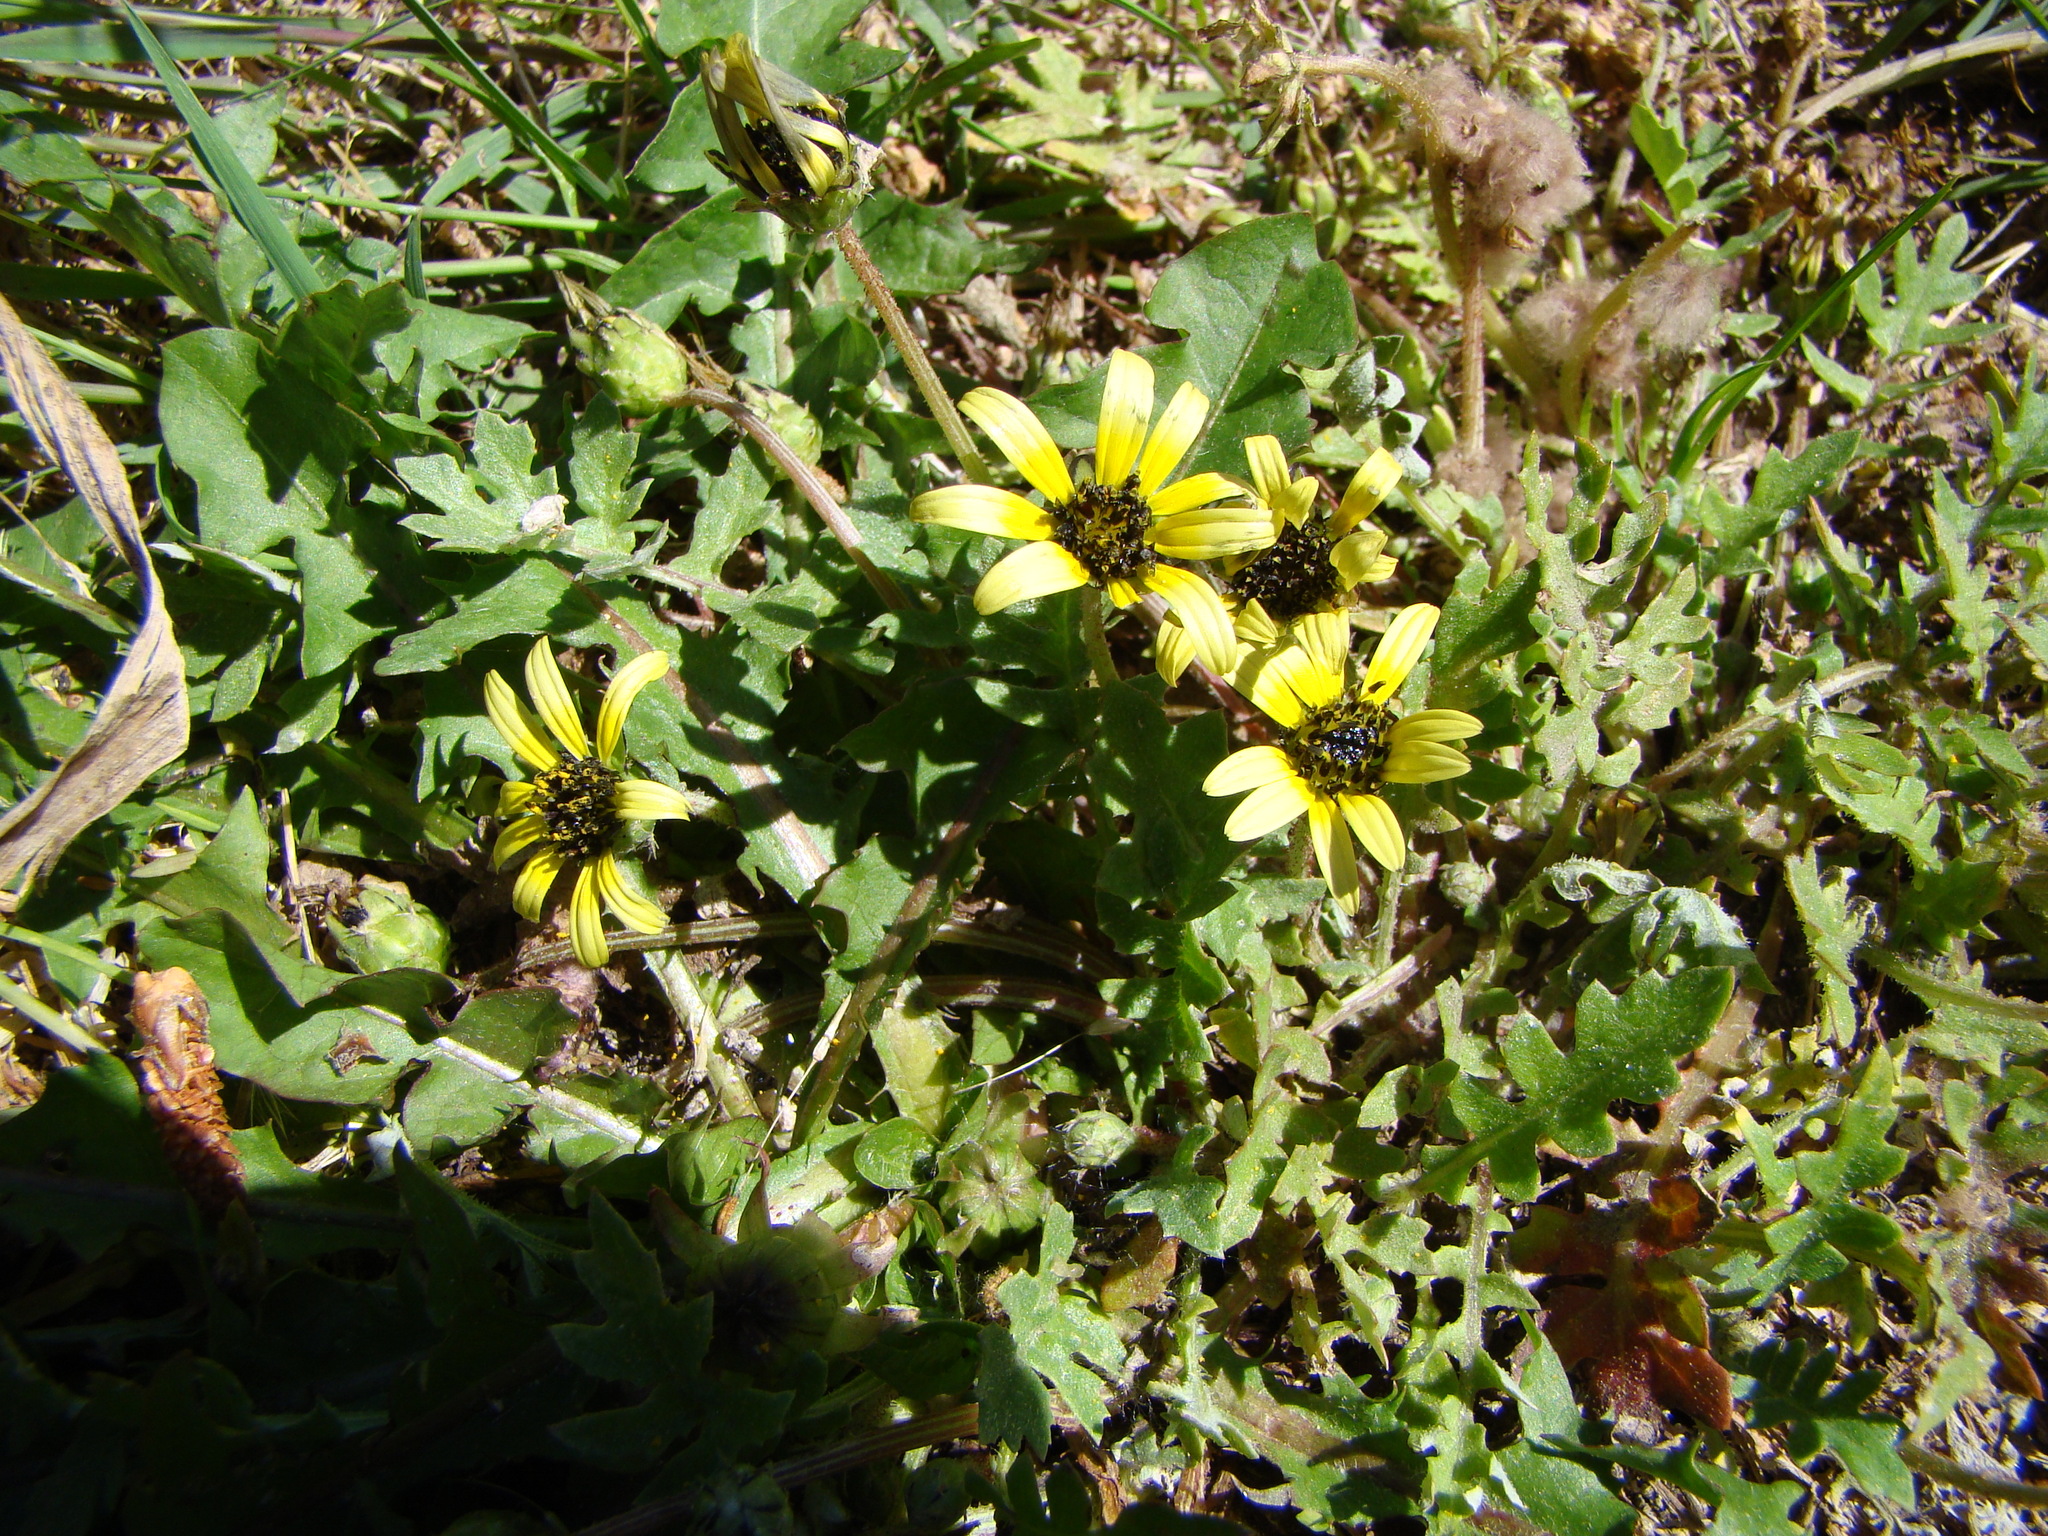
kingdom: Plantae
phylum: Tracheophyta
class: Magnoliopsida
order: Asterales
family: Asteraceae
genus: Arctotheca
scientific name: Arctotheca calendula
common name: Capeweed
